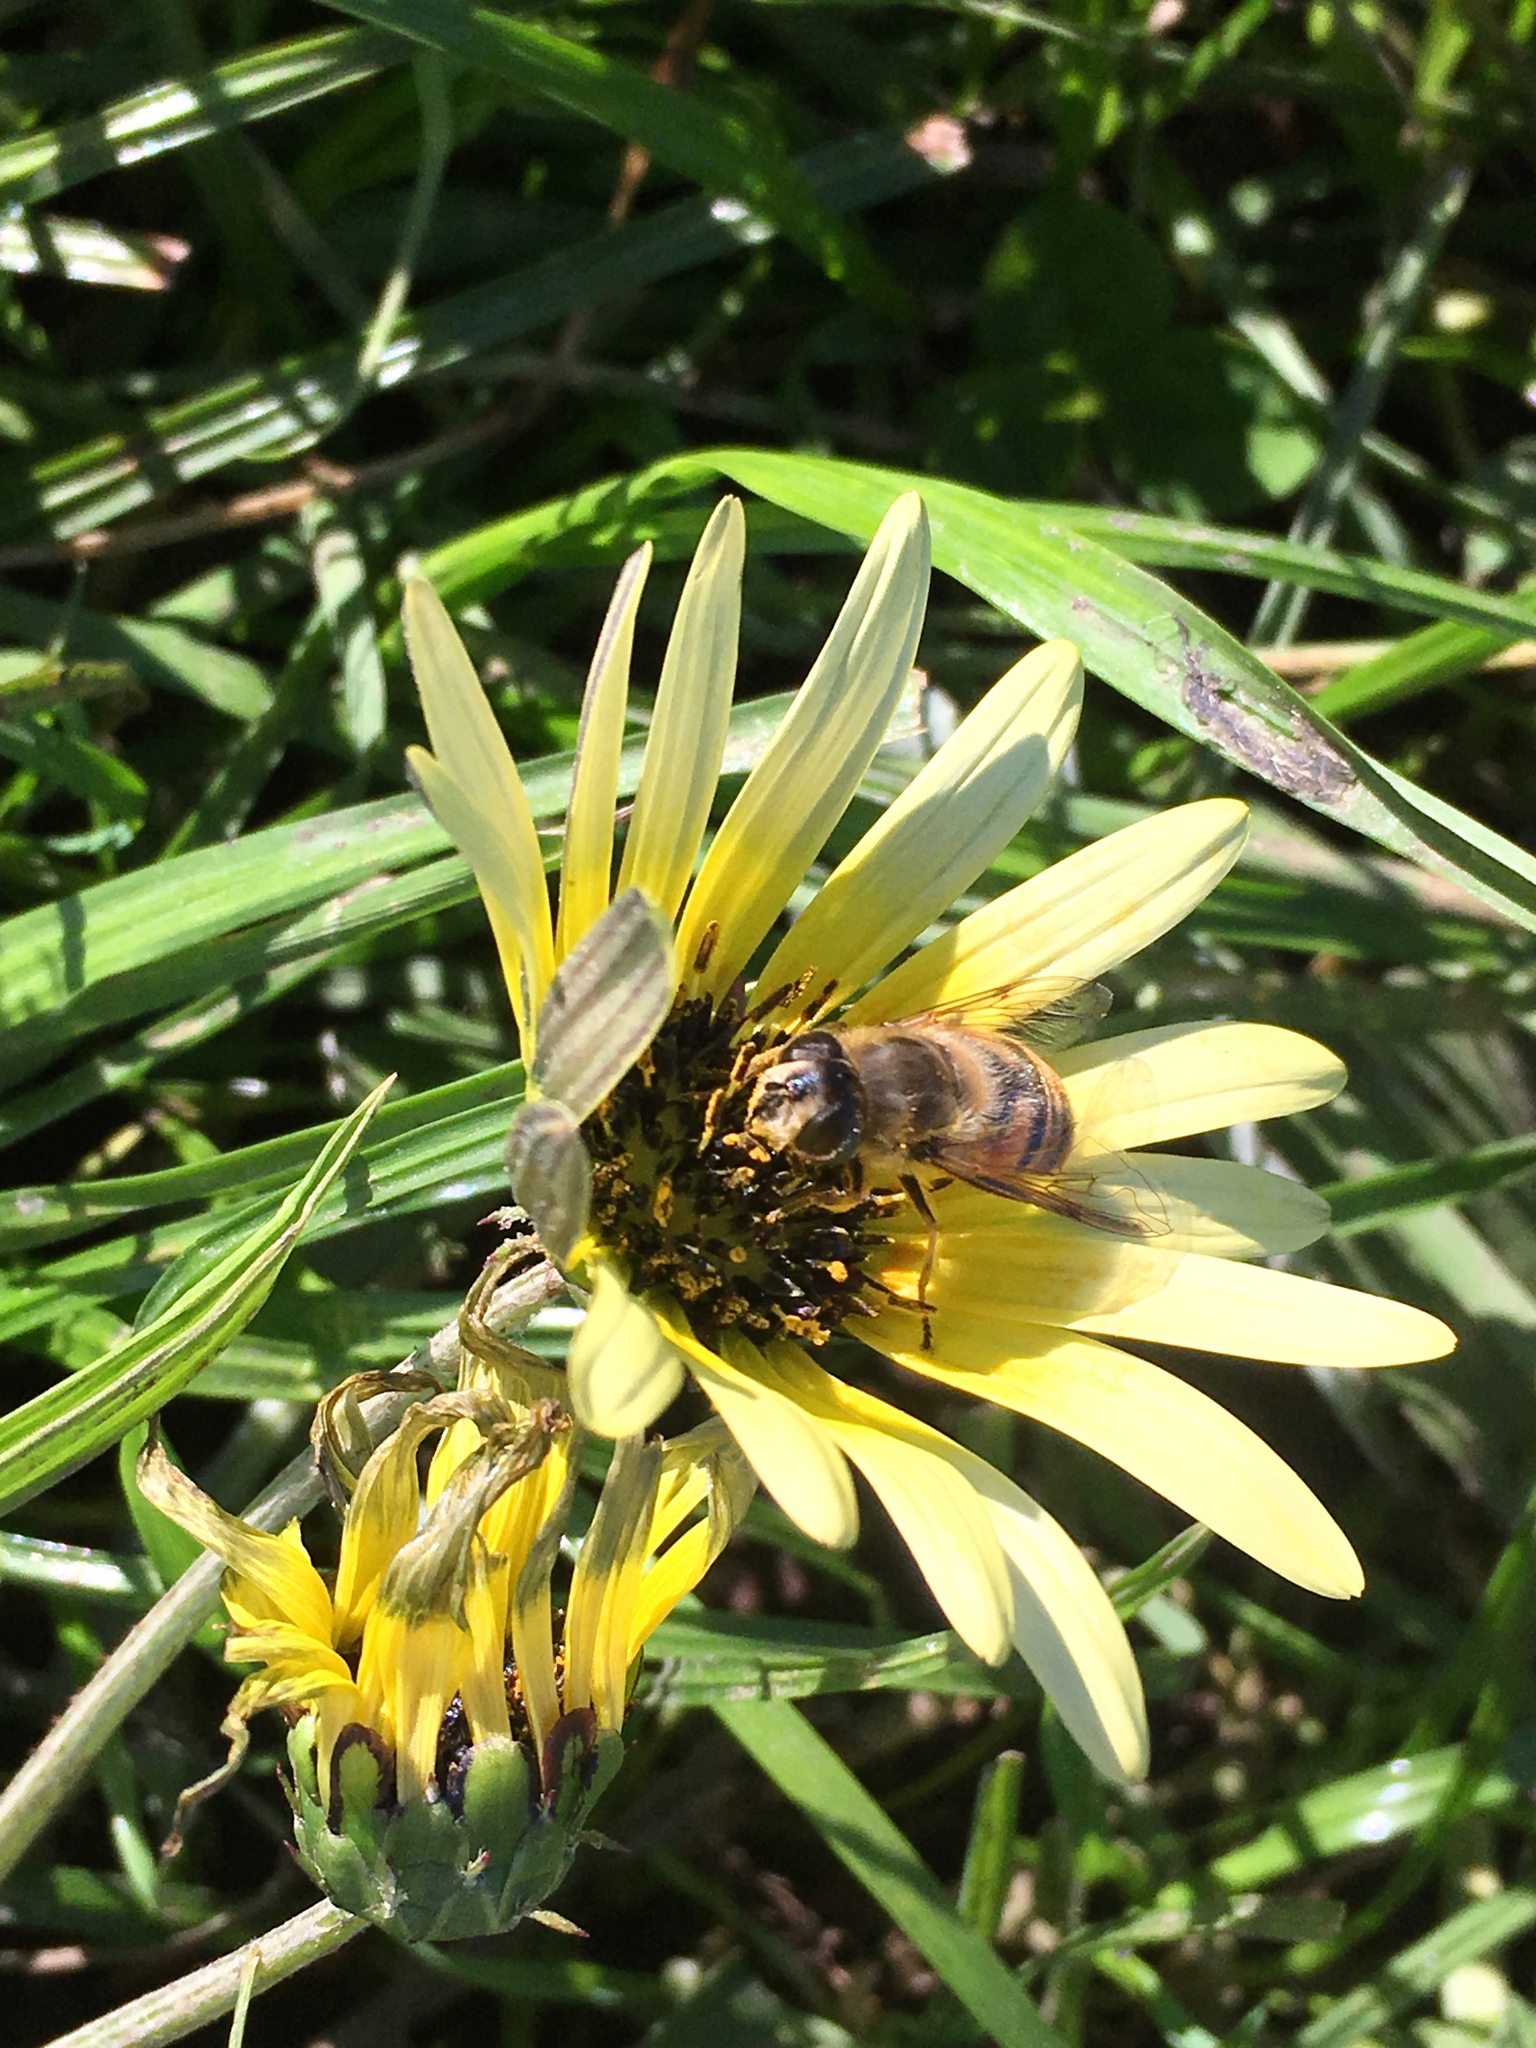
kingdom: Animalia
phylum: Arthropoda
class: Insecta
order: Diptera
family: Syrphidae
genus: Eristalis
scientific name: Eristalis tenax
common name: Drone fly
